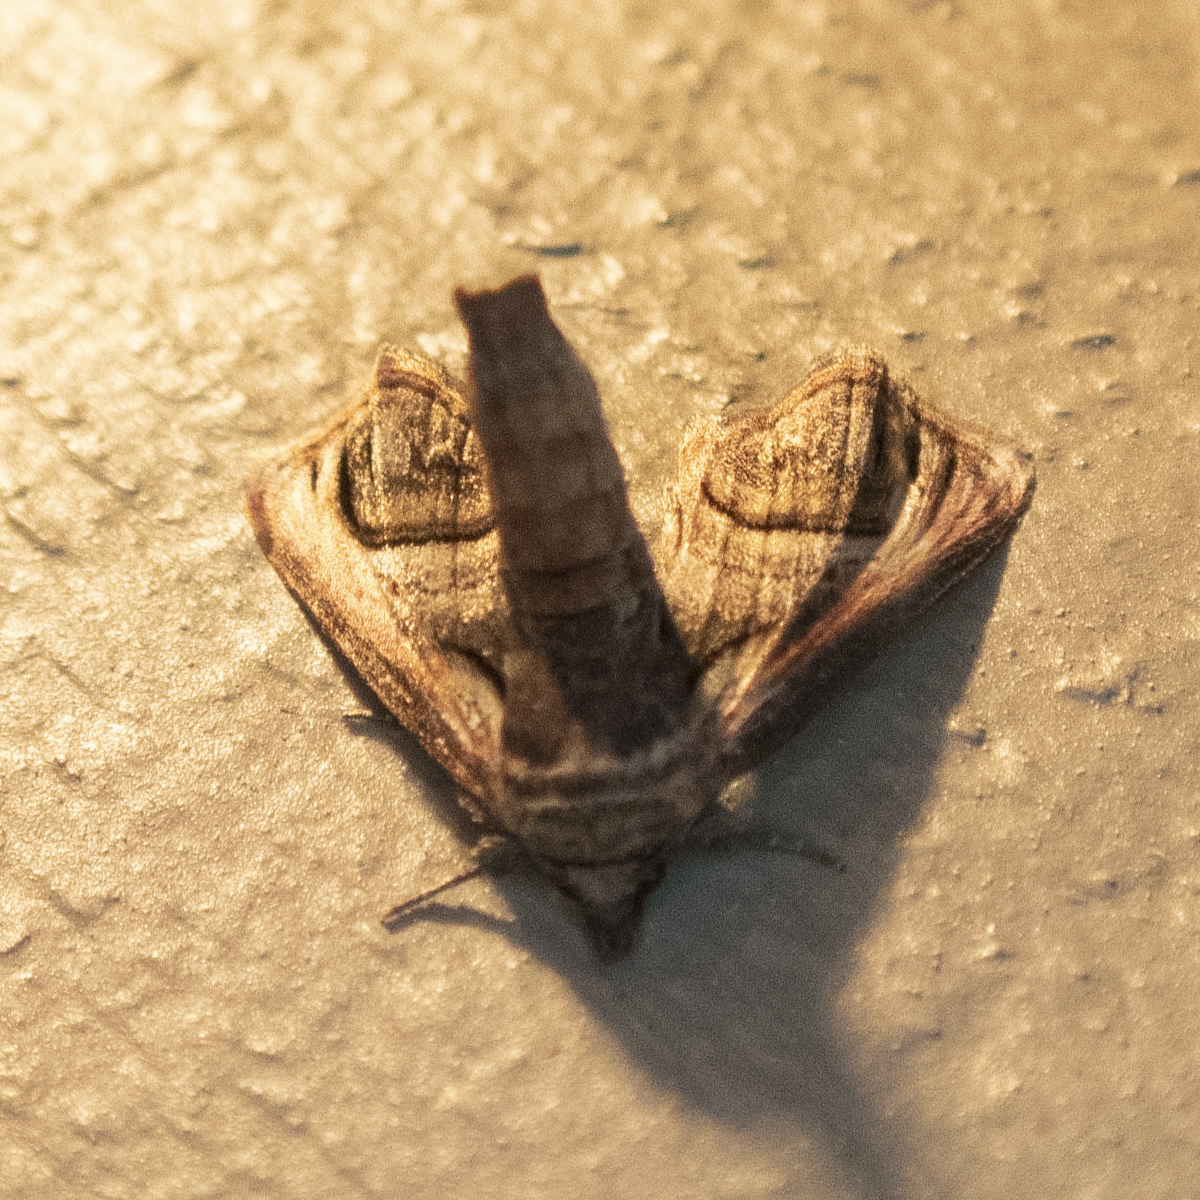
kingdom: Animalia
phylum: Arthropoda
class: Insecta
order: Lepidoptera
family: Euteliidae
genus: Paectes
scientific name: Paectes oculatrix
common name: Eyed paectes moth
